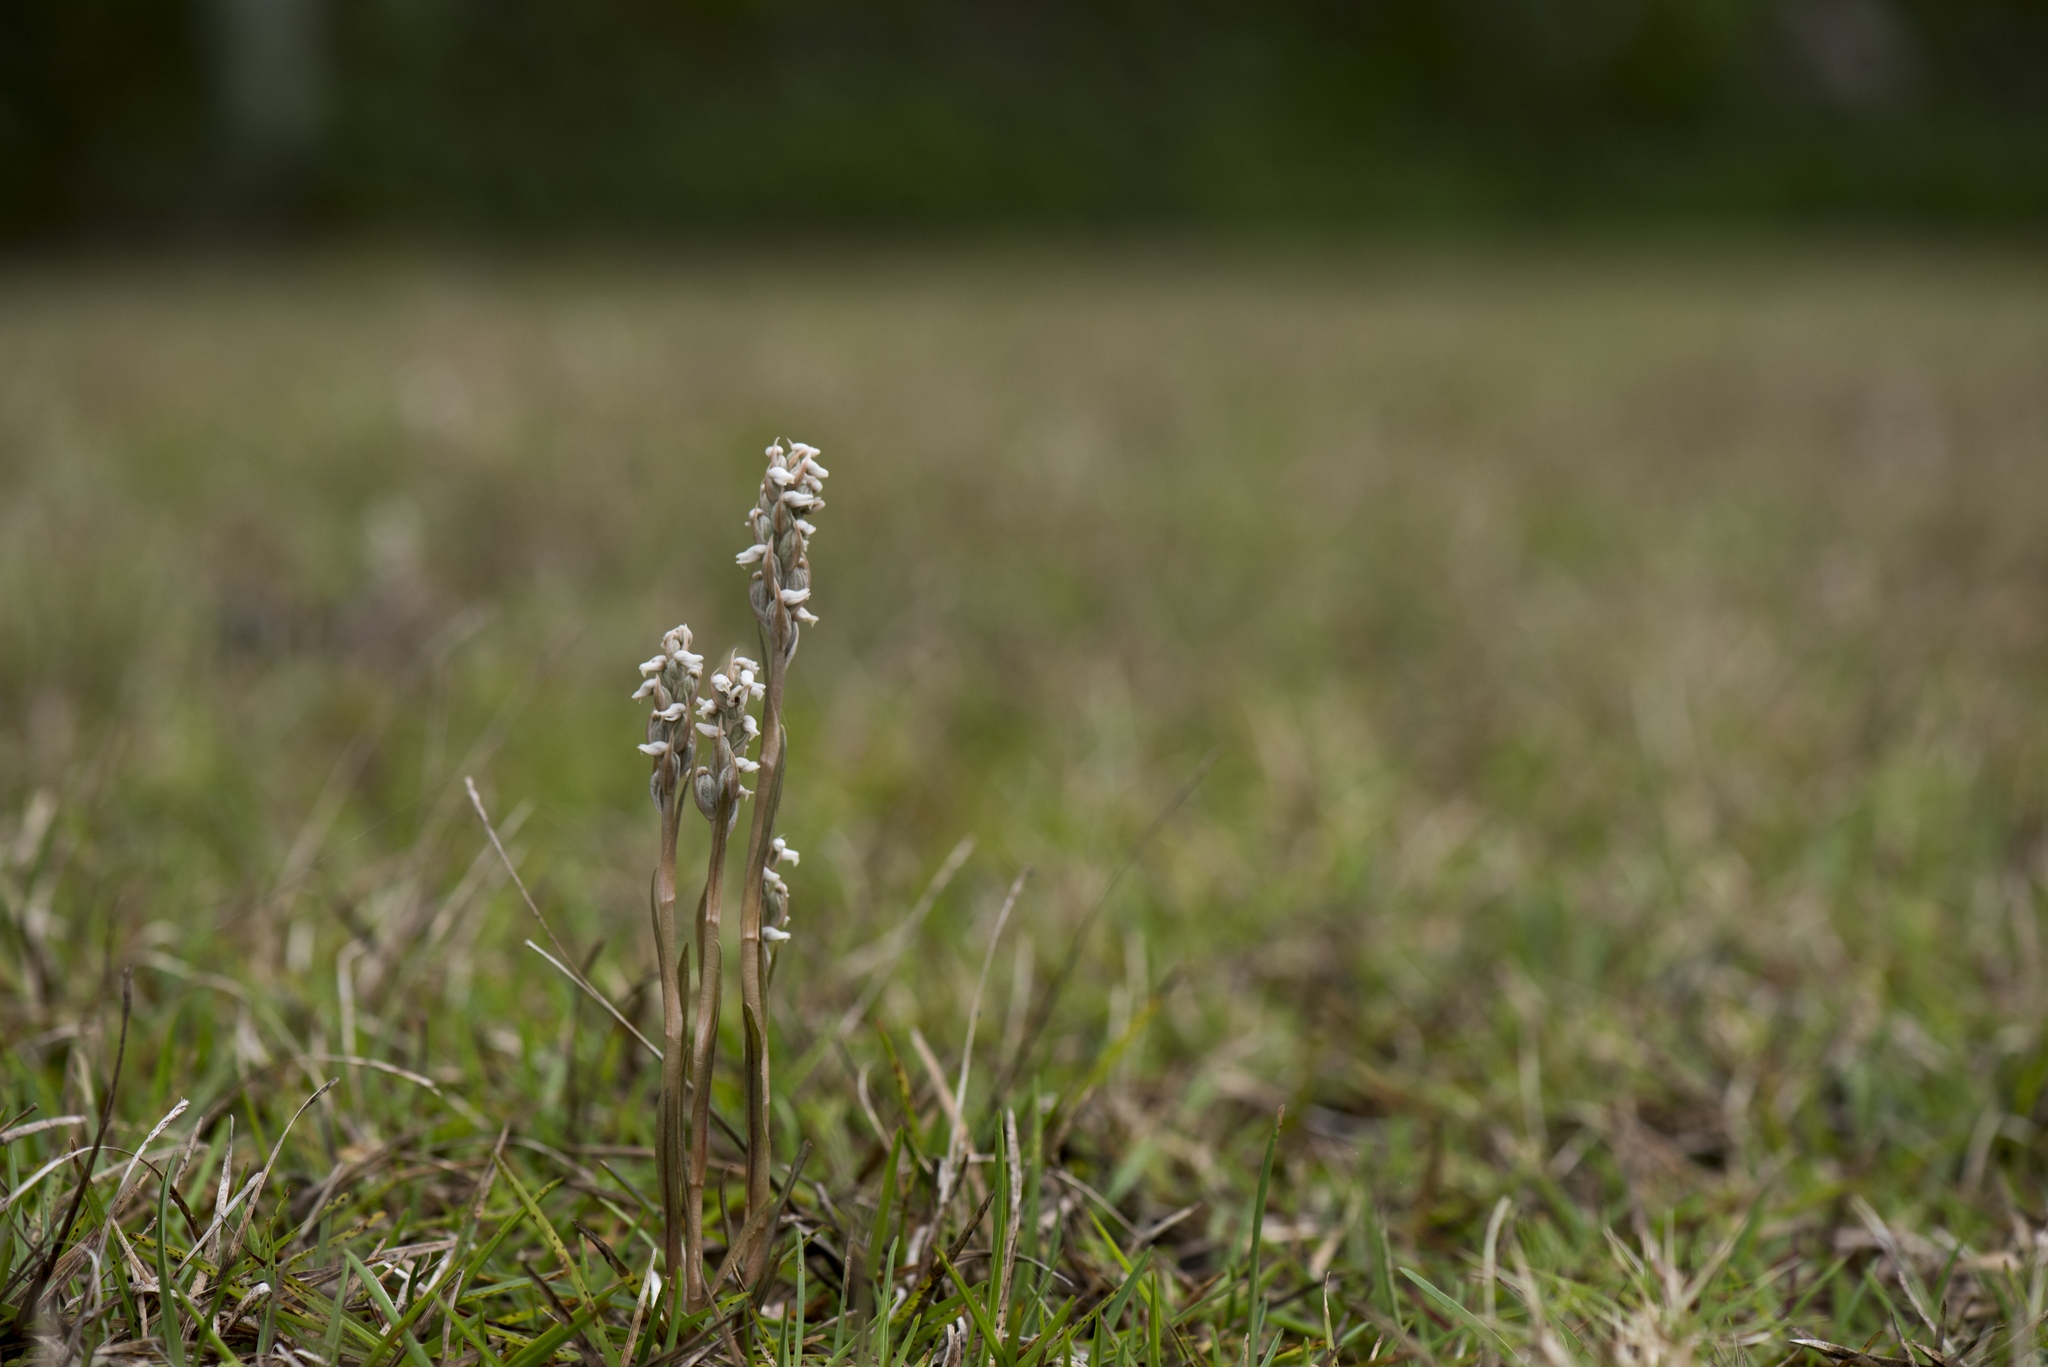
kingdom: Plantae
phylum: Tracheophyta
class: Liliopsida
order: Asparagales
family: Orchidaceae
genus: Zeuxine
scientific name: Zeuxine strateumatica
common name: Soldier's orchid
